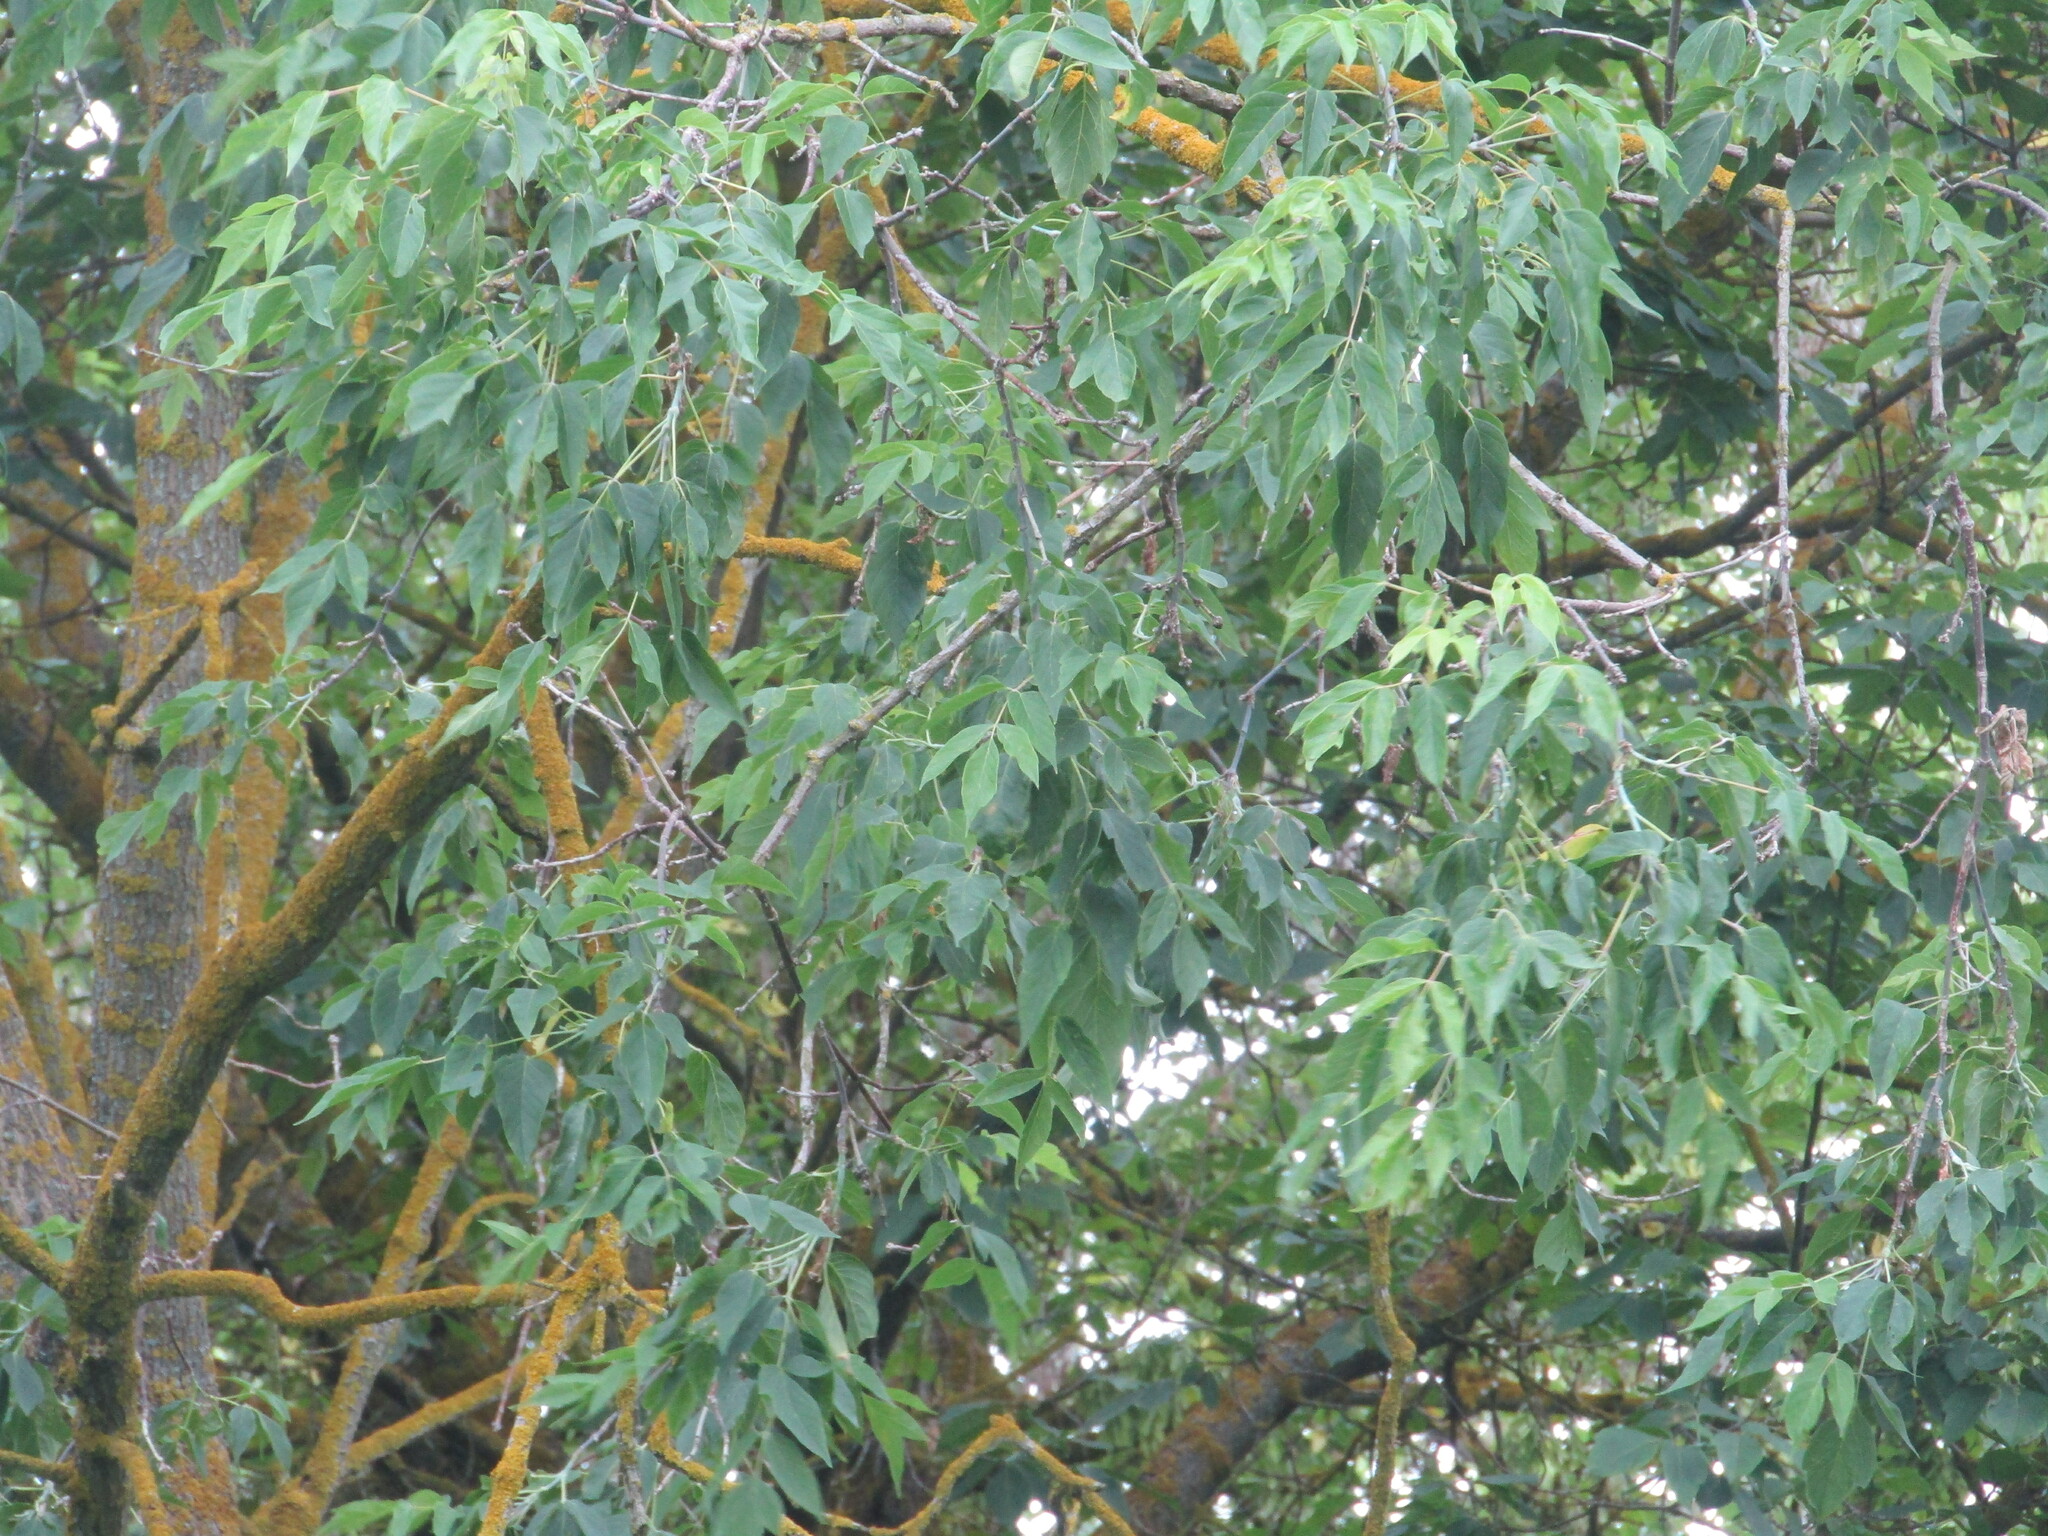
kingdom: Plantae
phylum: Tracheophyta
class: Magnoliopsida
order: Sapindales
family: Sapindaceae
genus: Acer
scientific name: Acer negundo
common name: Ashleaf maple
